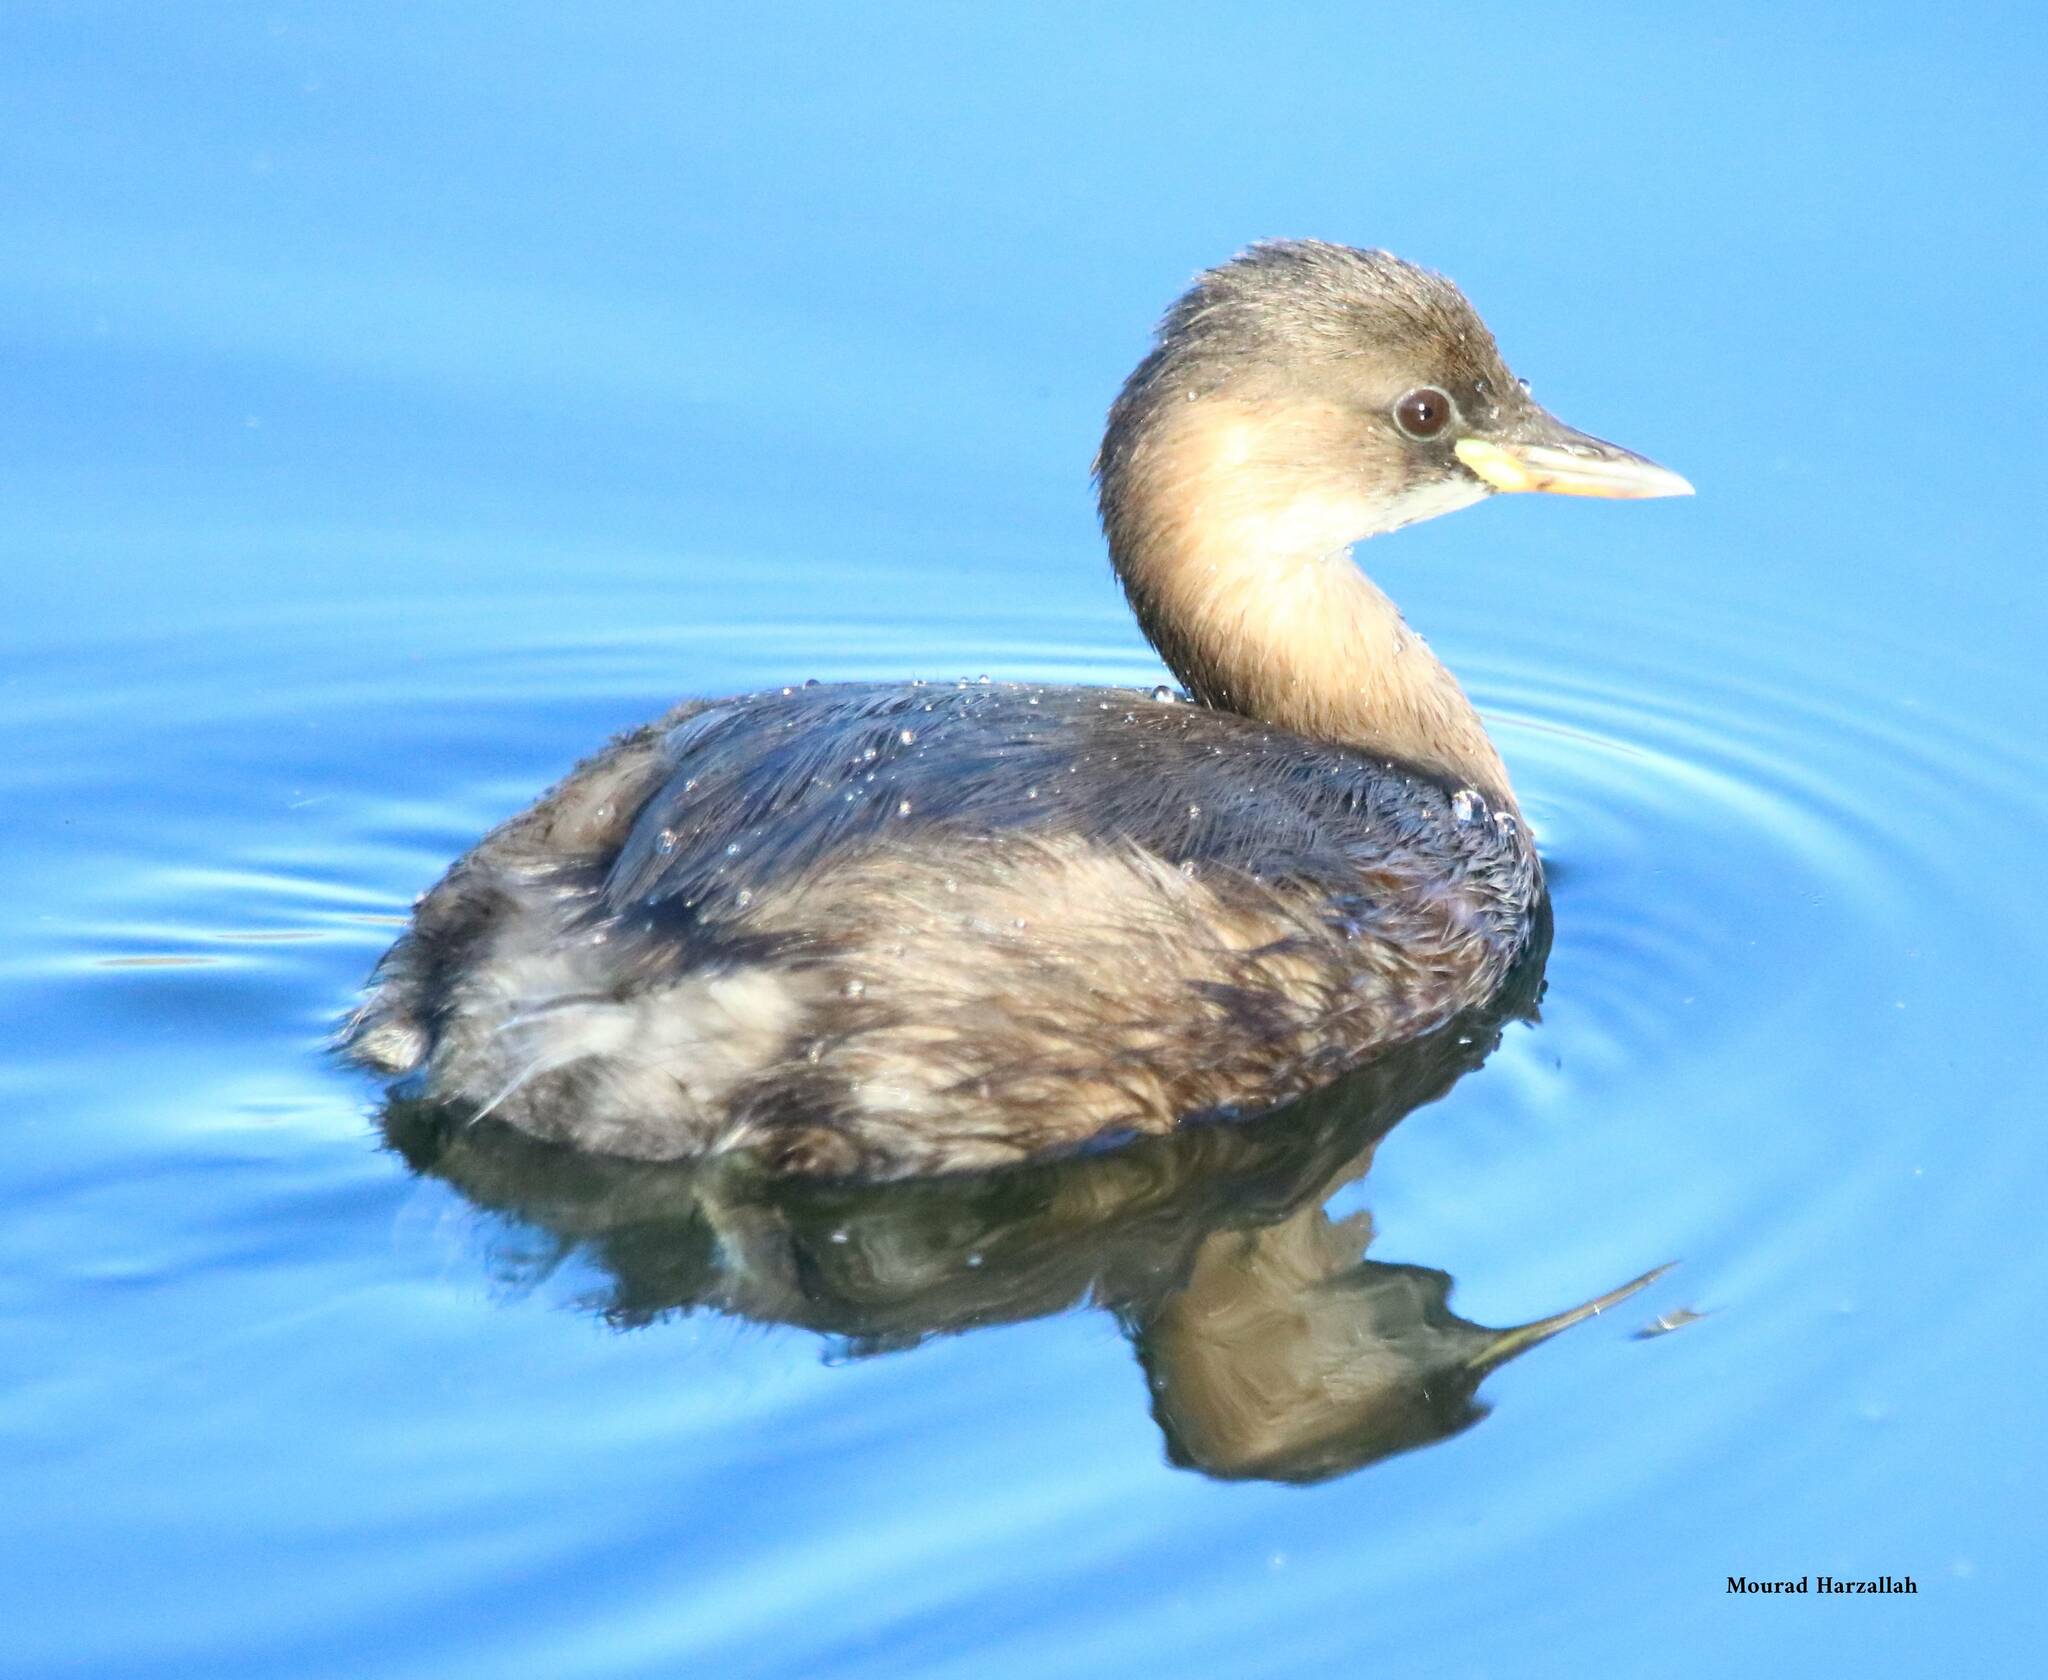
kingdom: Animalia
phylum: Chordata
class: Aves
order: Podicipediformes
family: Podicipedidae
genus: Tachybaptus
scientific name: Tachybaptus ruficollis
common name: Little grebe
